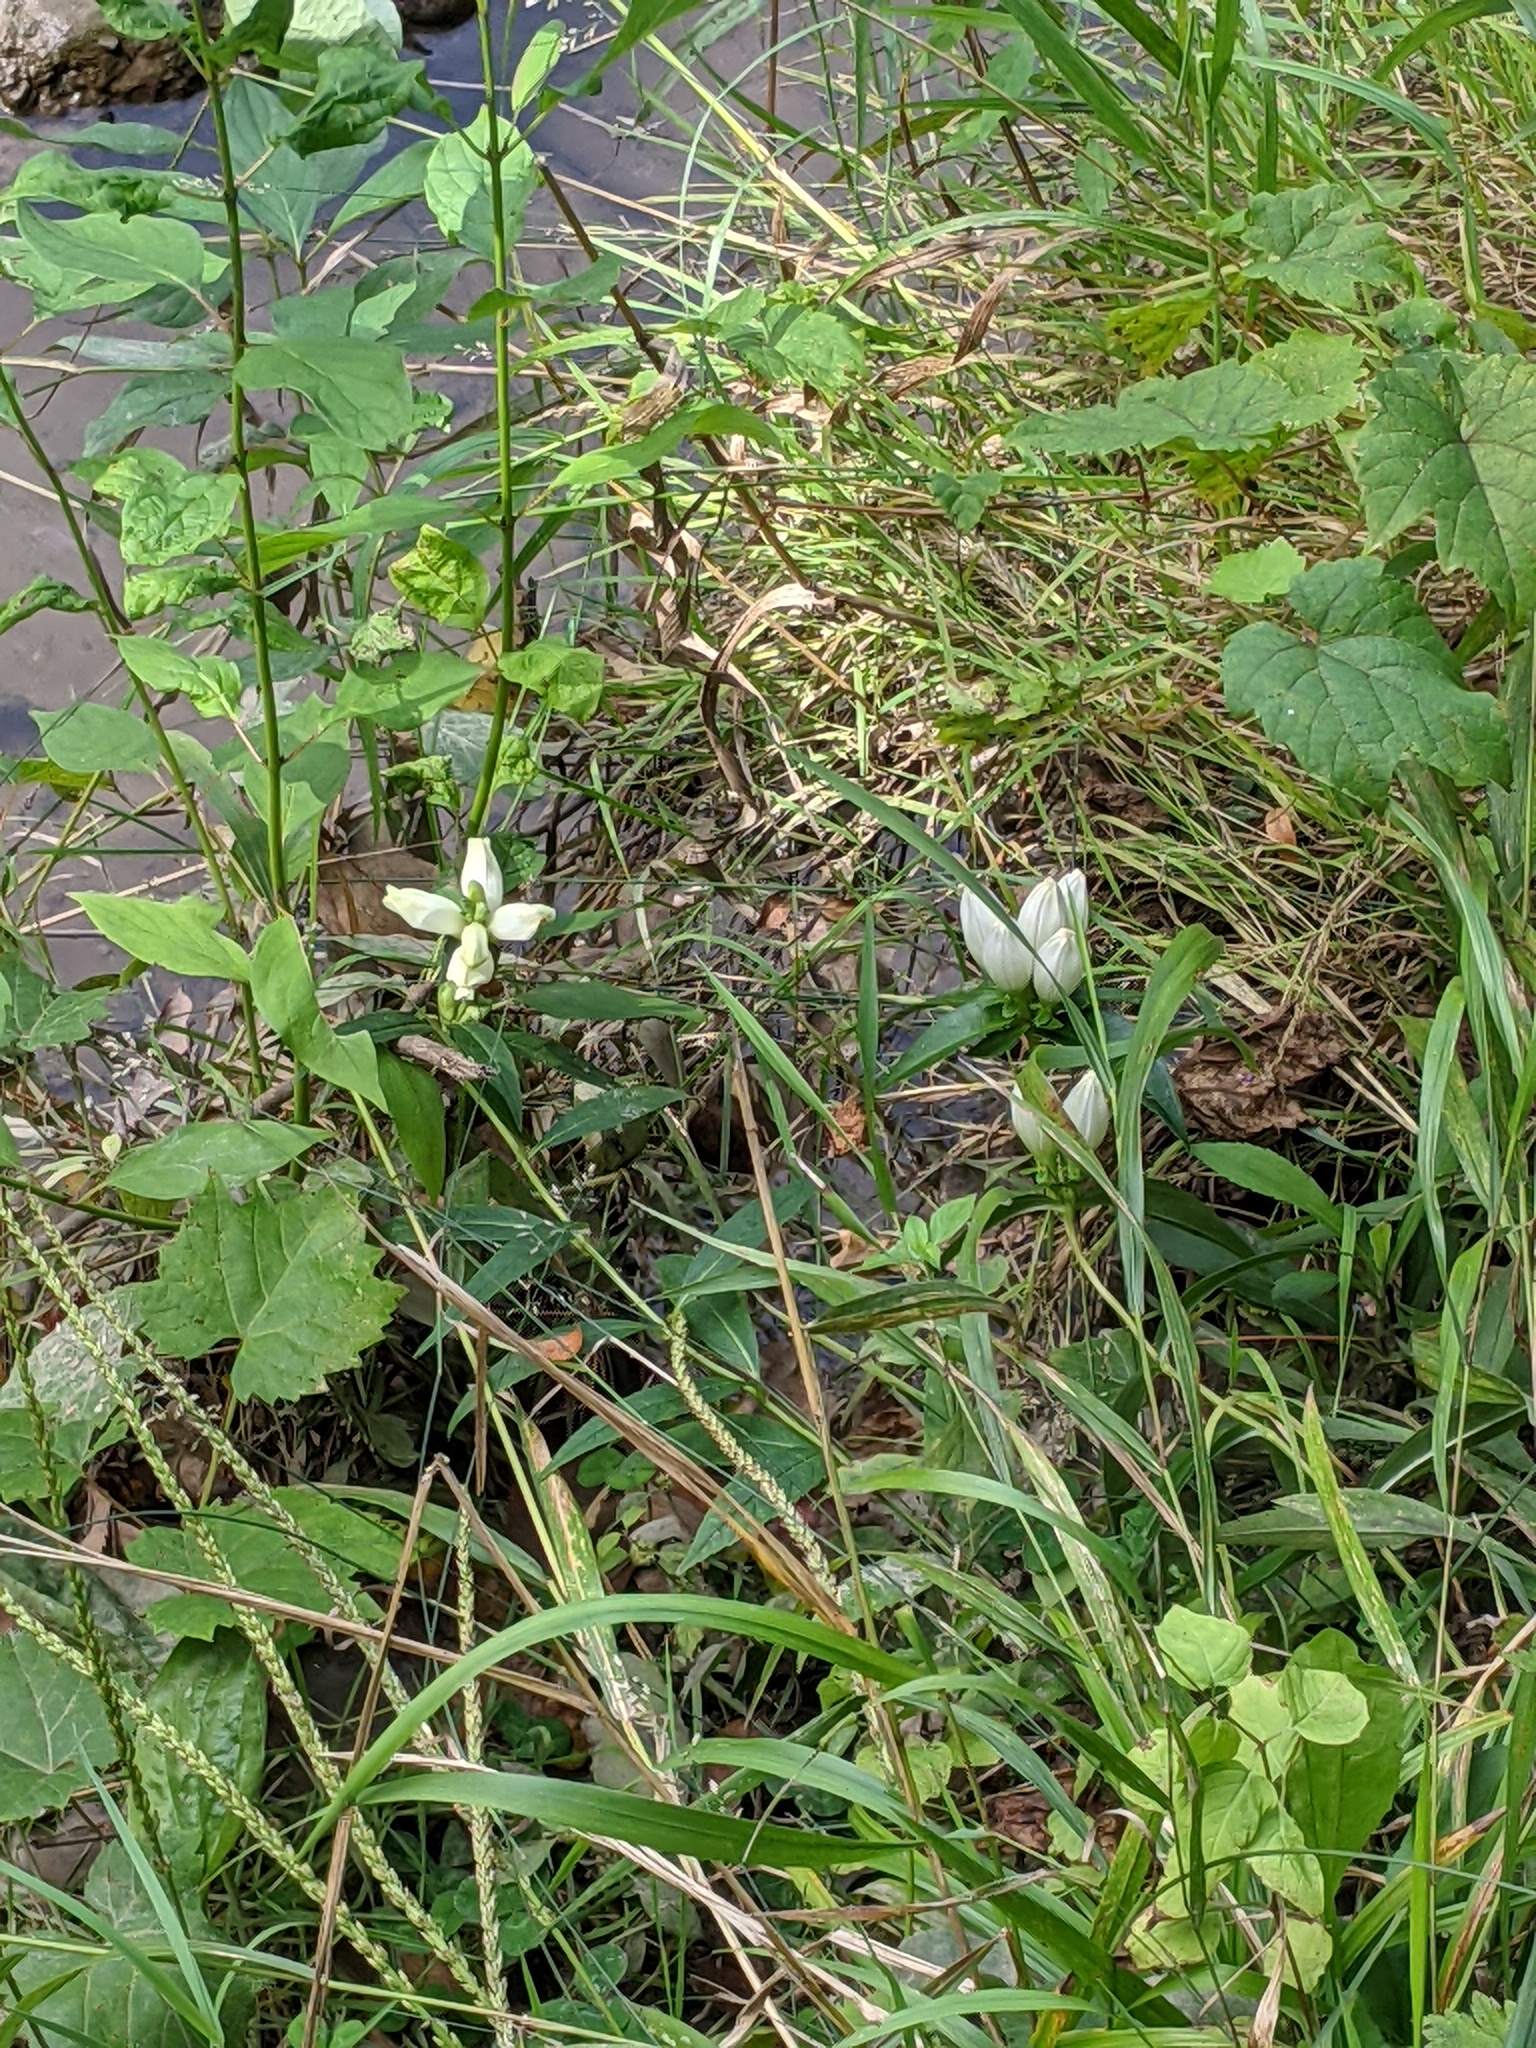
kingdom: Plantae
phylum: Tracheophyta
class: Magnoliopsida
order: Lamiales
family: Plantaginaceae
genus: Chelone
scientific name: Chelone glabra
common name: Snakehead
